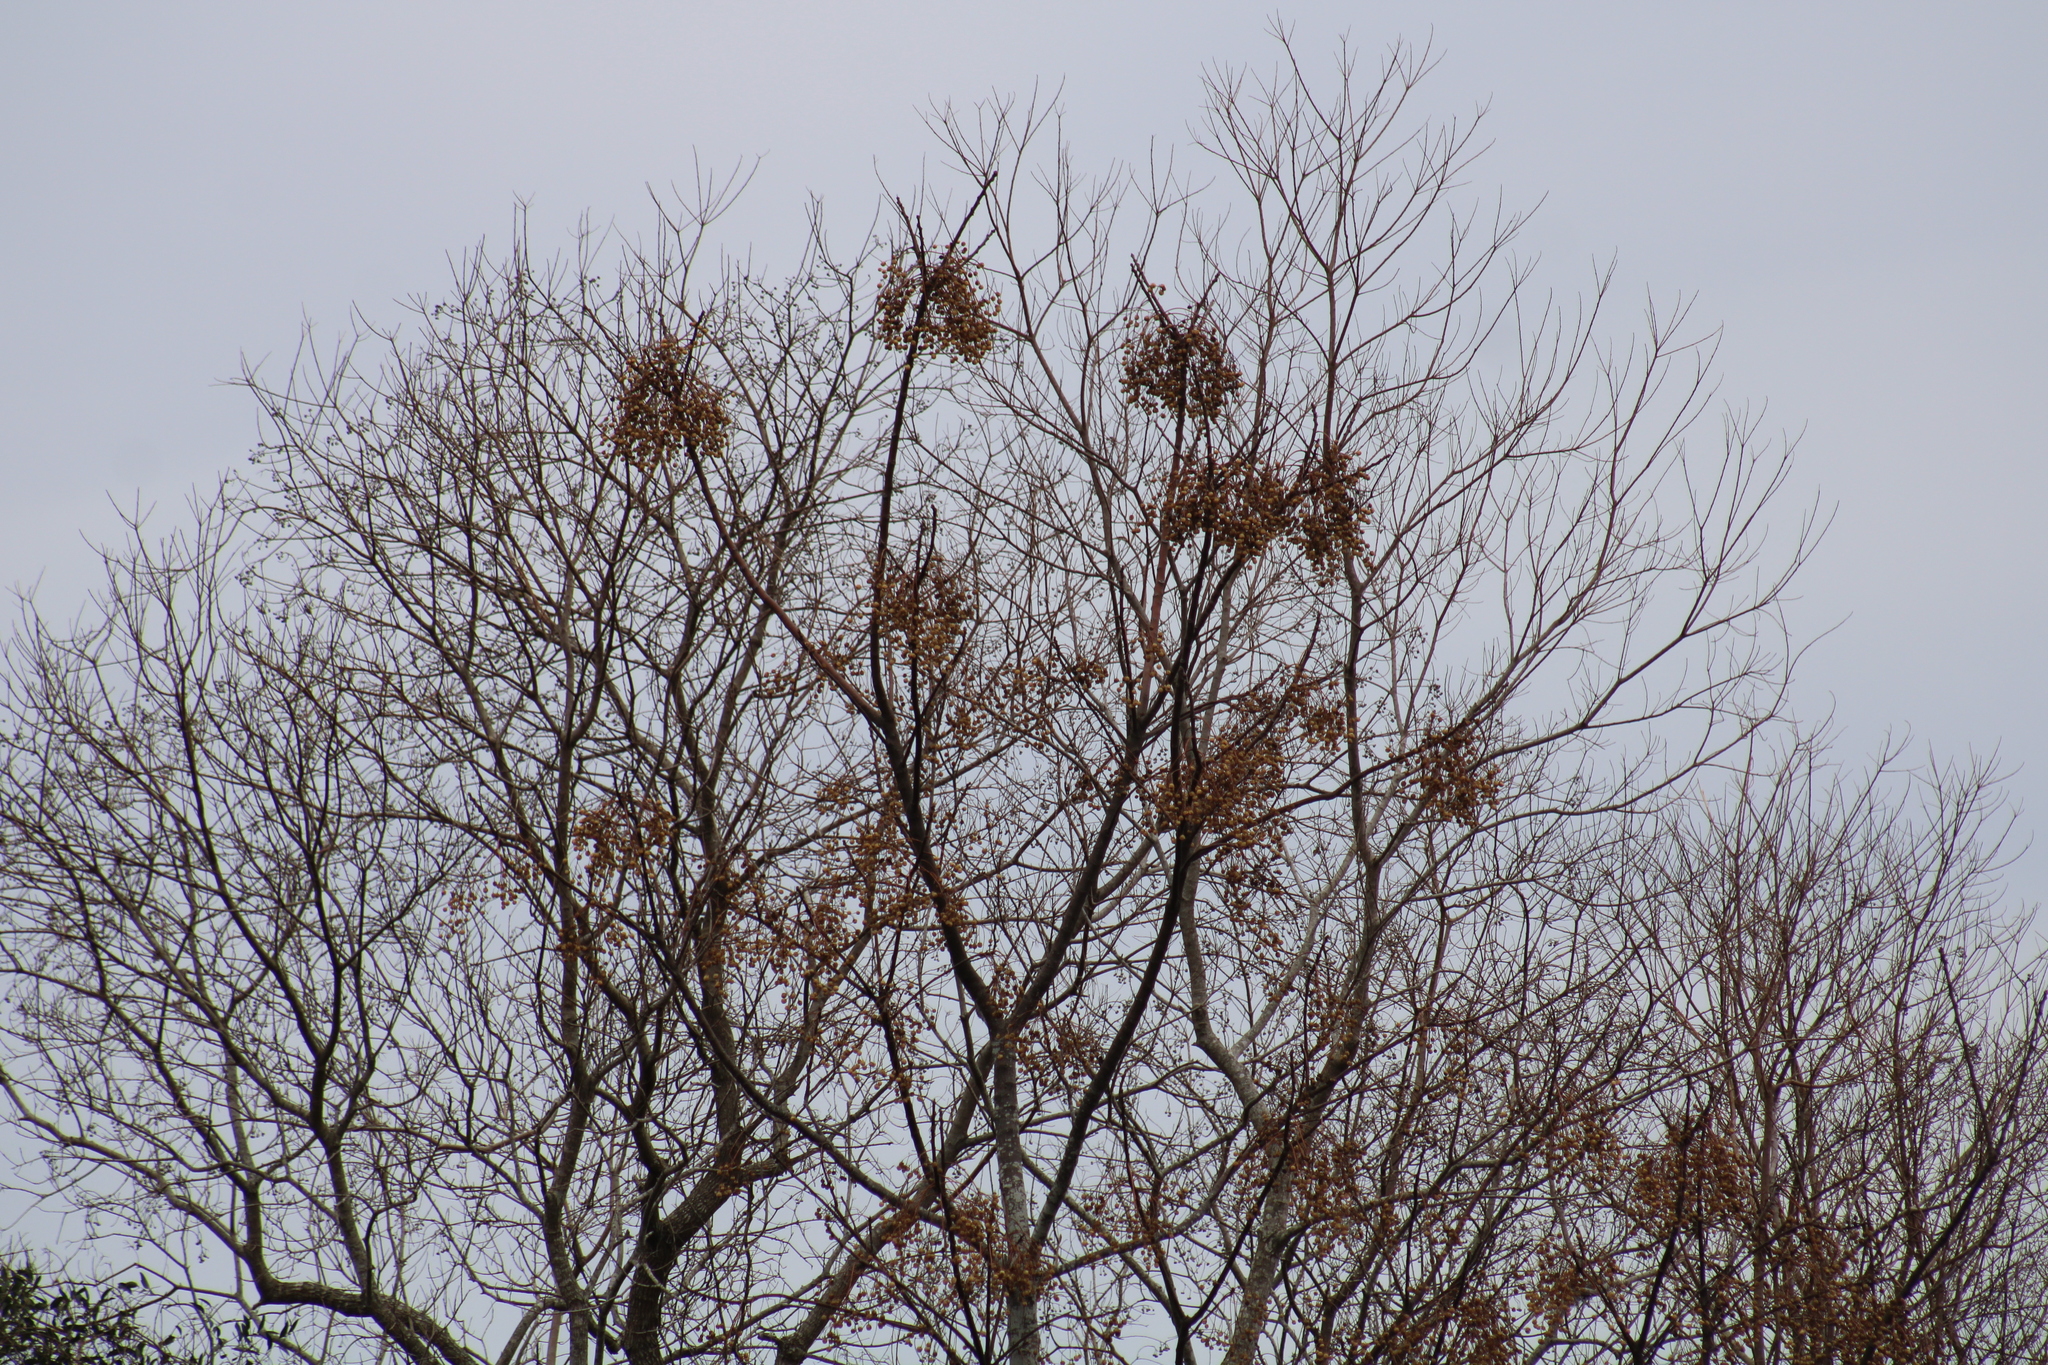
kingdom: Plantae
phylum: Tracheophyta
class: Magnoliopsida
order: Sapindales
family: Meliaceae
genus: Melia
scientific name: Melia azedarach
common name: Chinaberrytree
